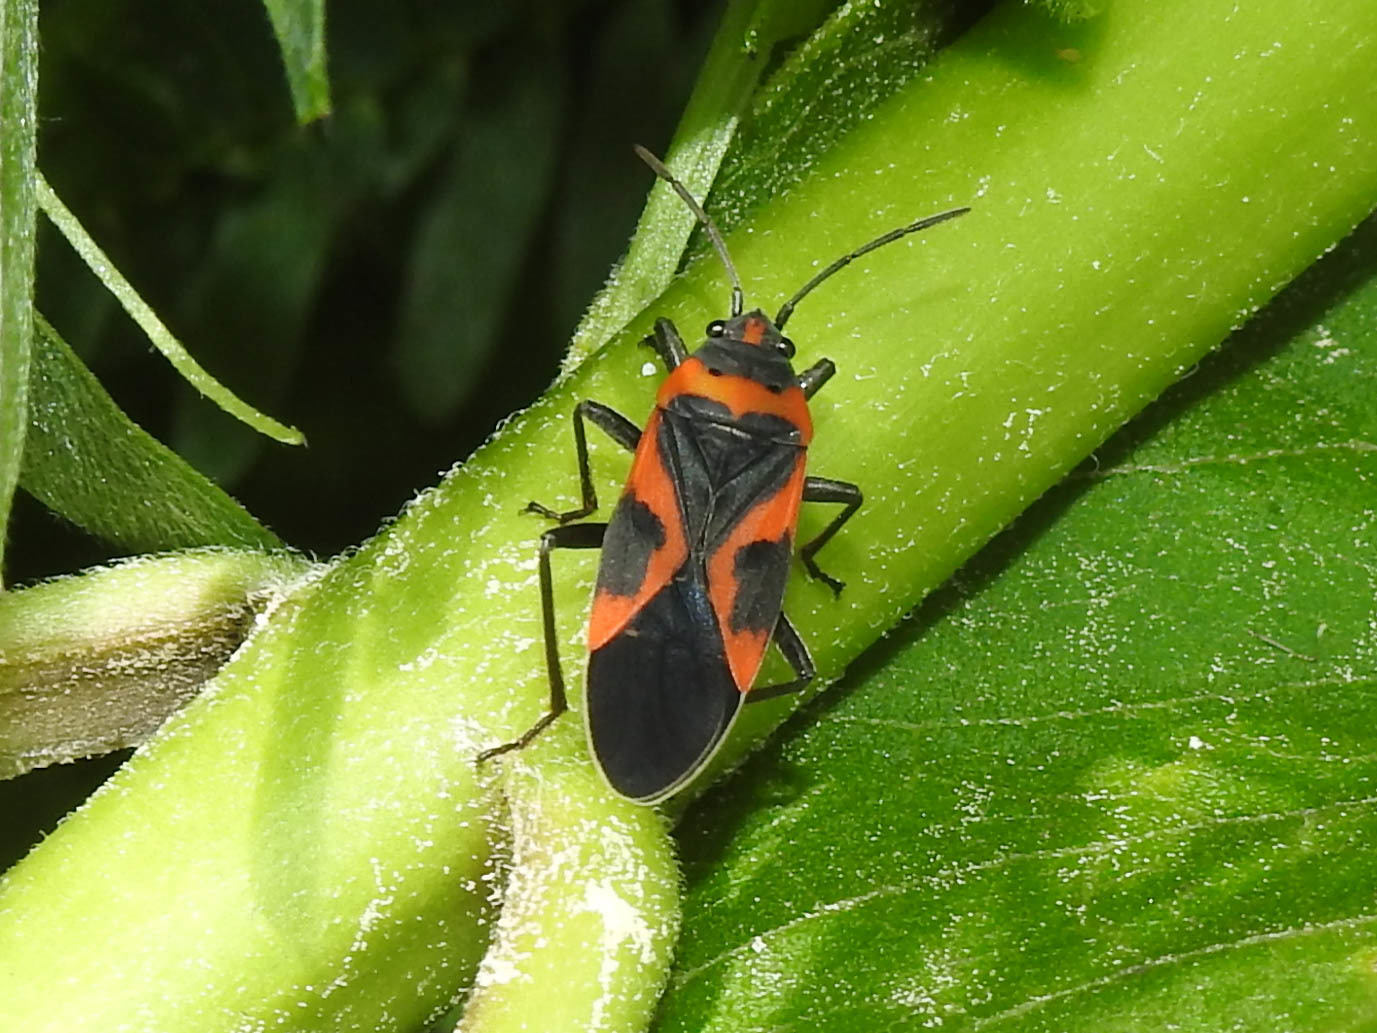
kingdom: Animalia
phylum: Arthropoda
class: Insecta
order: Hemiptera
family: Lygaeidae
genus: Lygaeus
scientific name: Lygaeus kalmii
